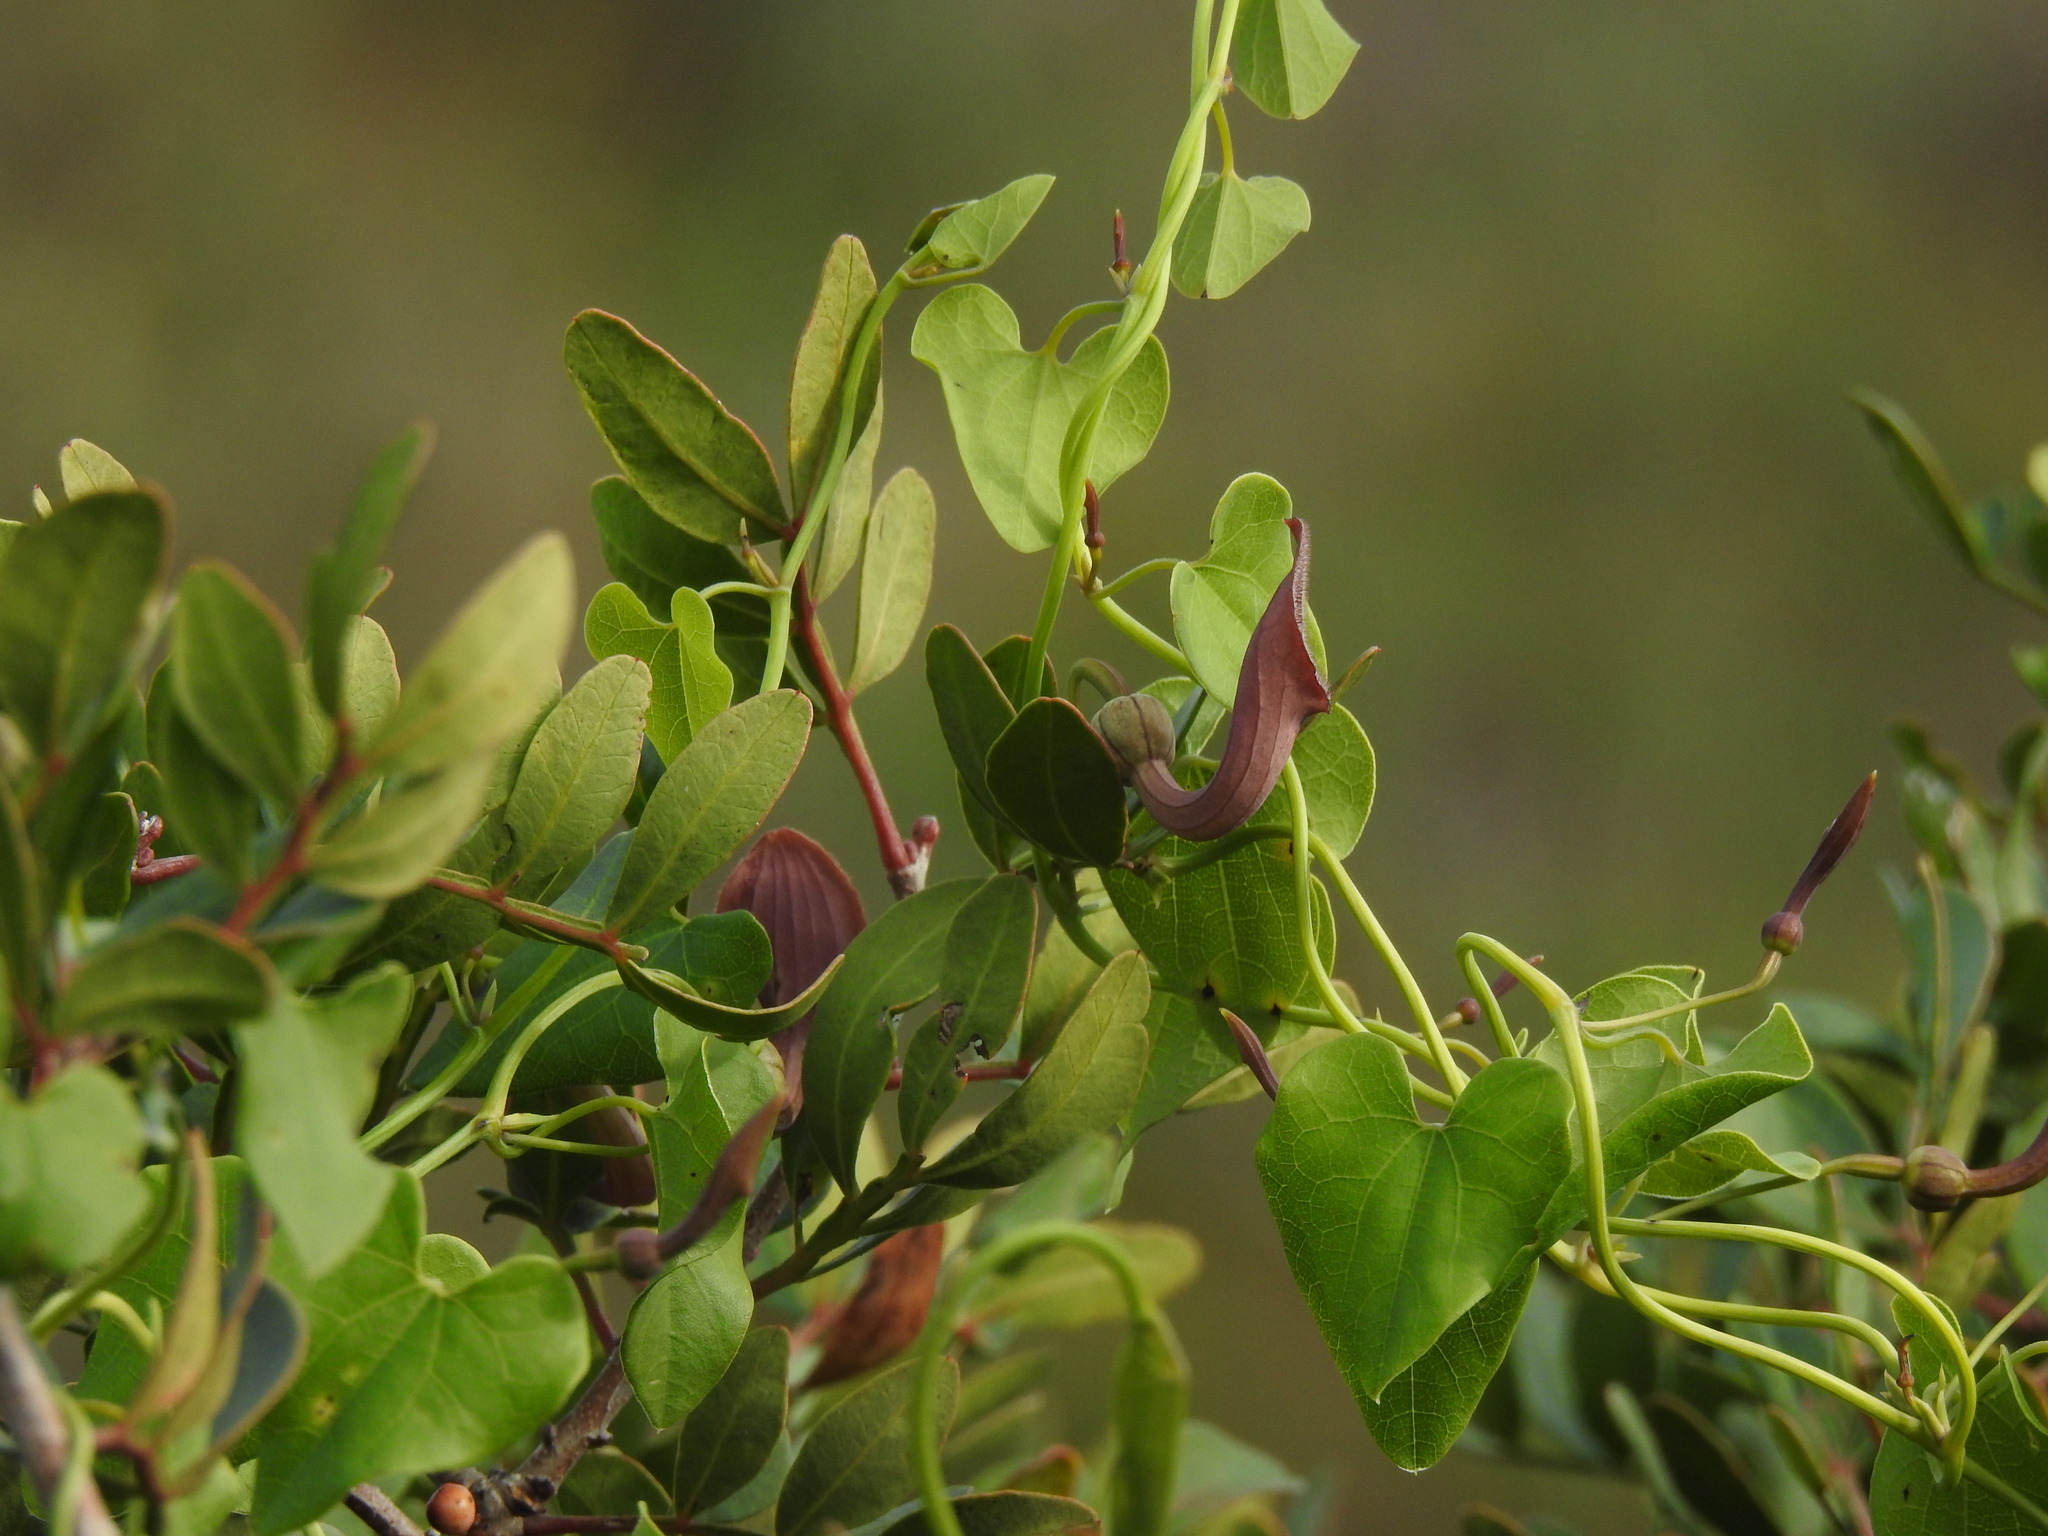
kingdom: Plantae
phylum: Tracheophyta
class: Magnoliopsida
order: Piperales
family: Aristolochiaceae
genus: Aristolochia
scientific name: Aristolochia baetica
